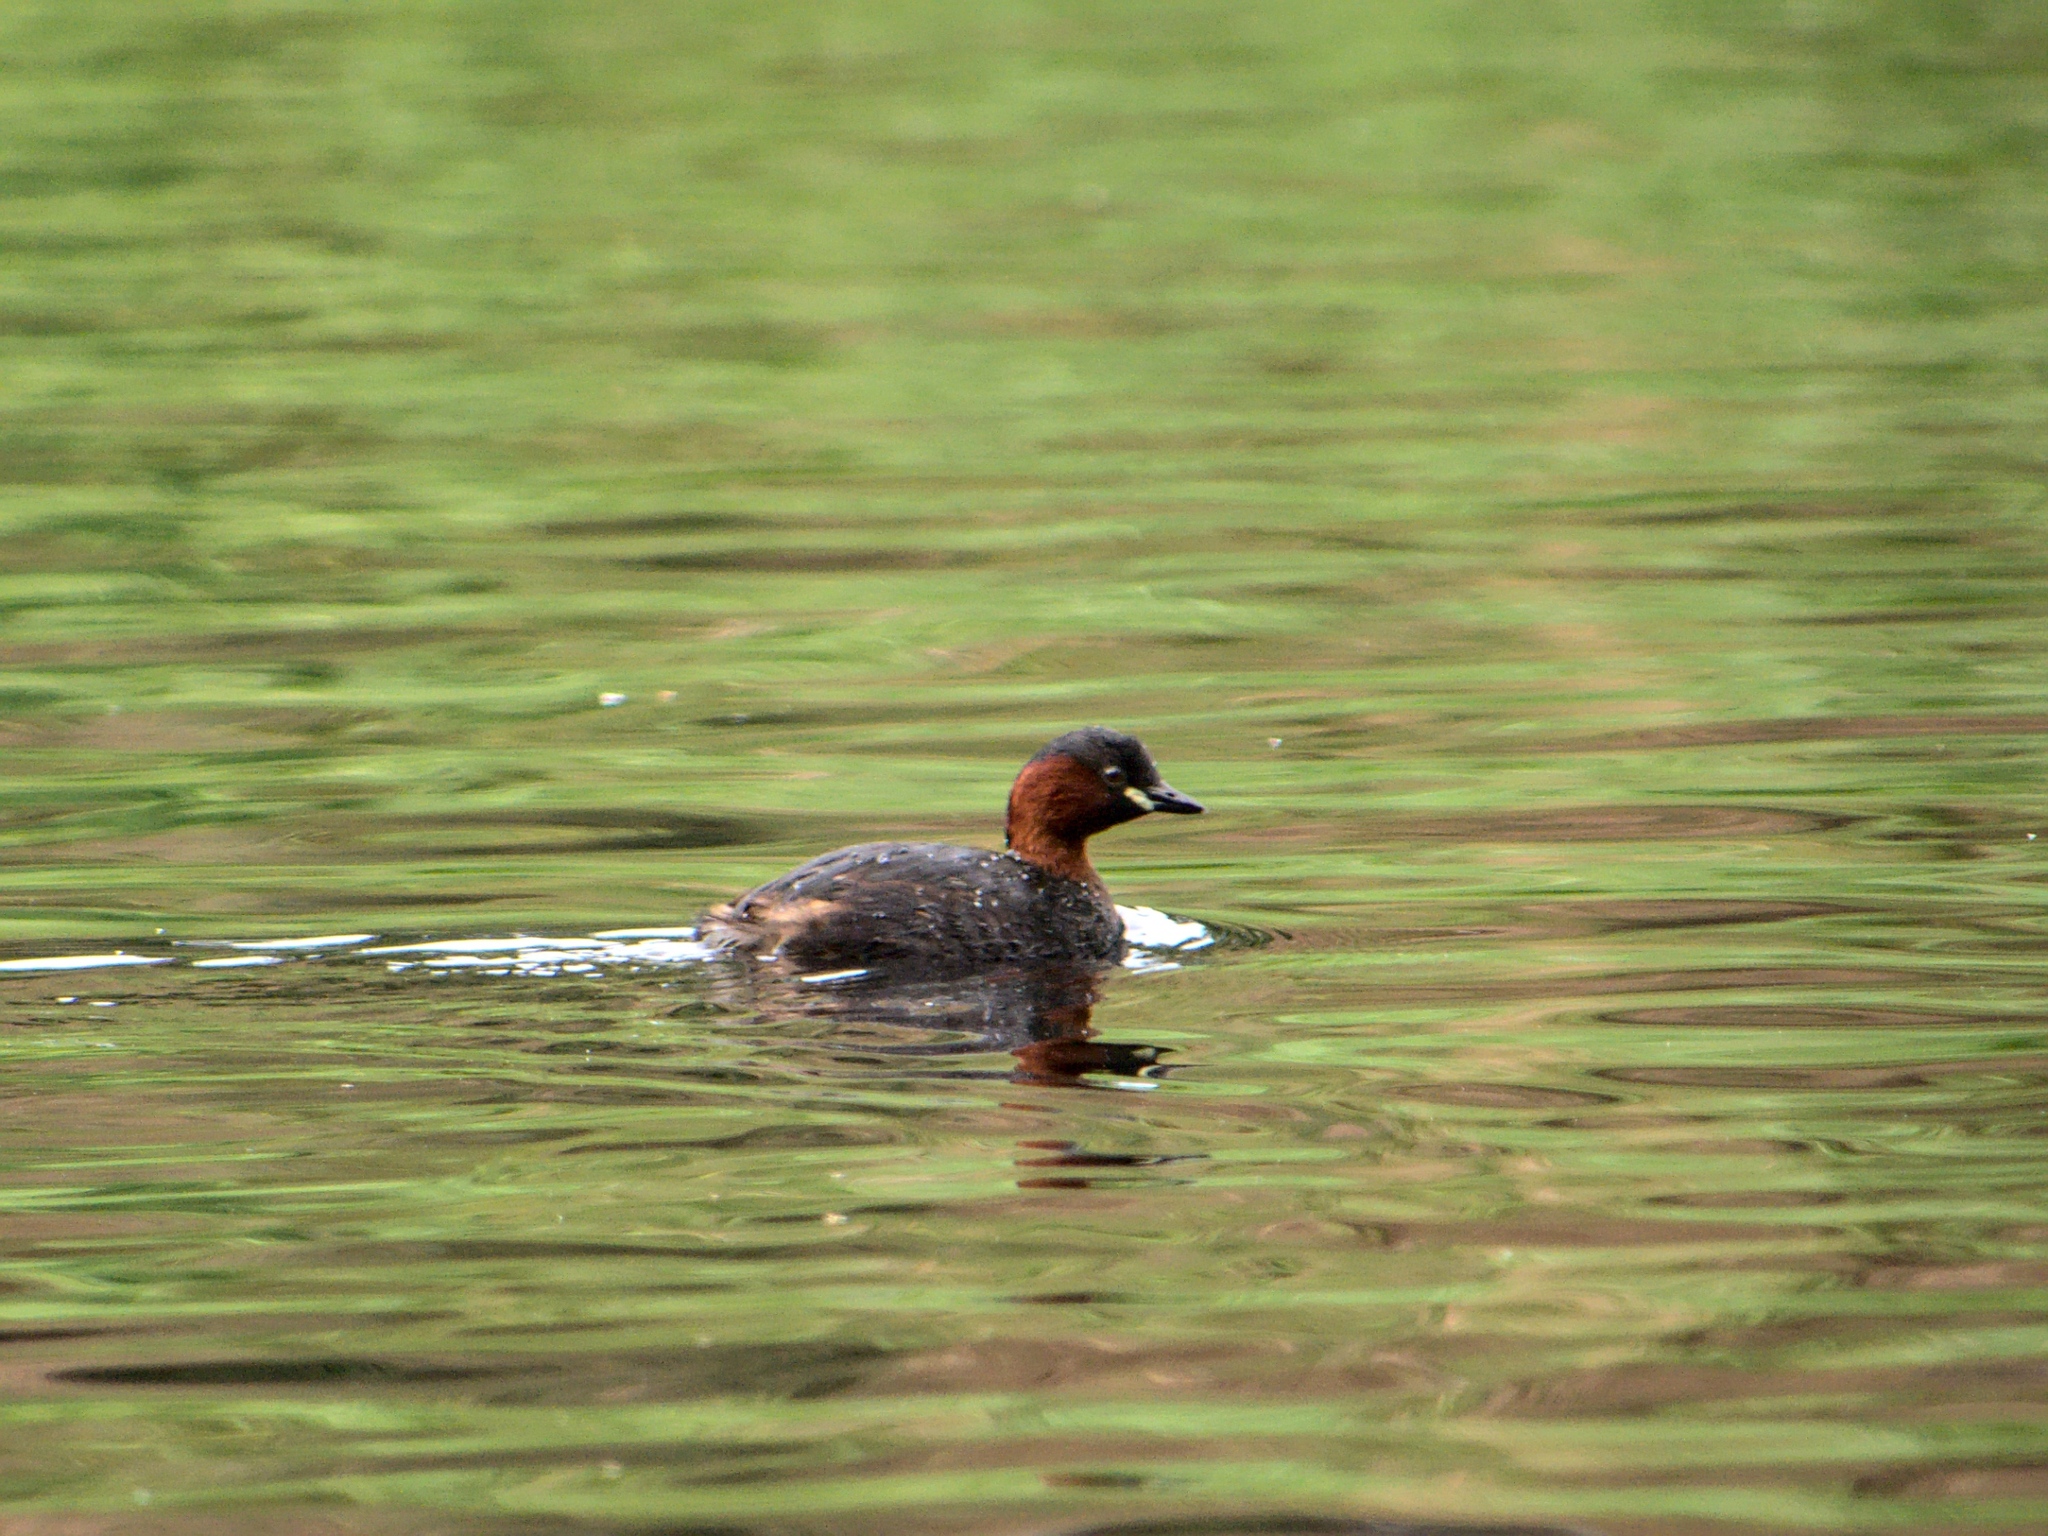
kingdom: Animalia
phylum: Chordata
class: Aves
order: Podicipediformes
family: Podicipedidae
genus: Tachybaptus
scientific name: Tachybaptus ruficollis
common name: Little grebe
